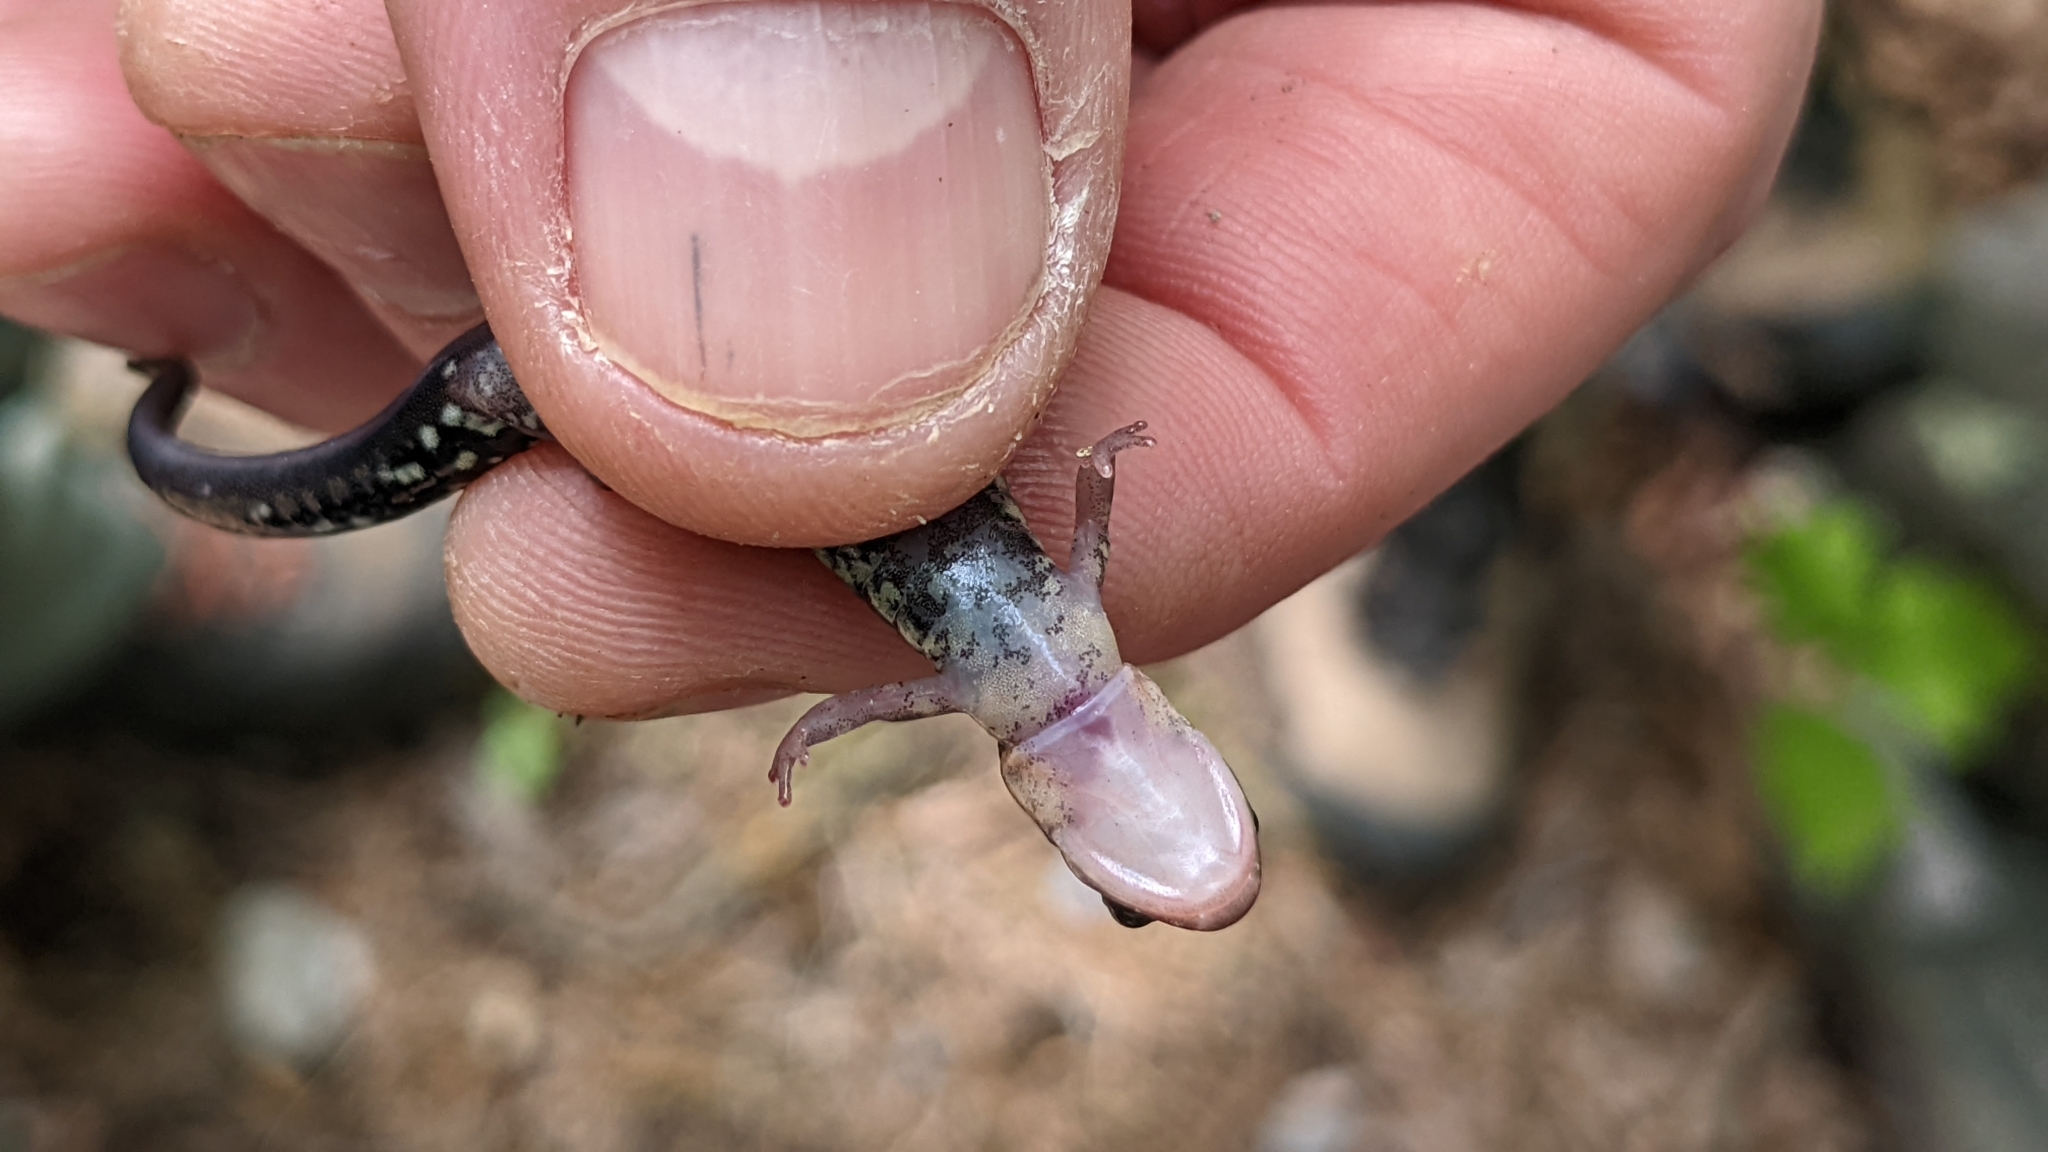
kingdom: Animalia
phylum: Chordata
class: Amphibia
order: Caudata
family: Plethodontidae
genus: Plethodon
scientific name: Plethodon caddoensis
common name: Caddo mountain salamander
